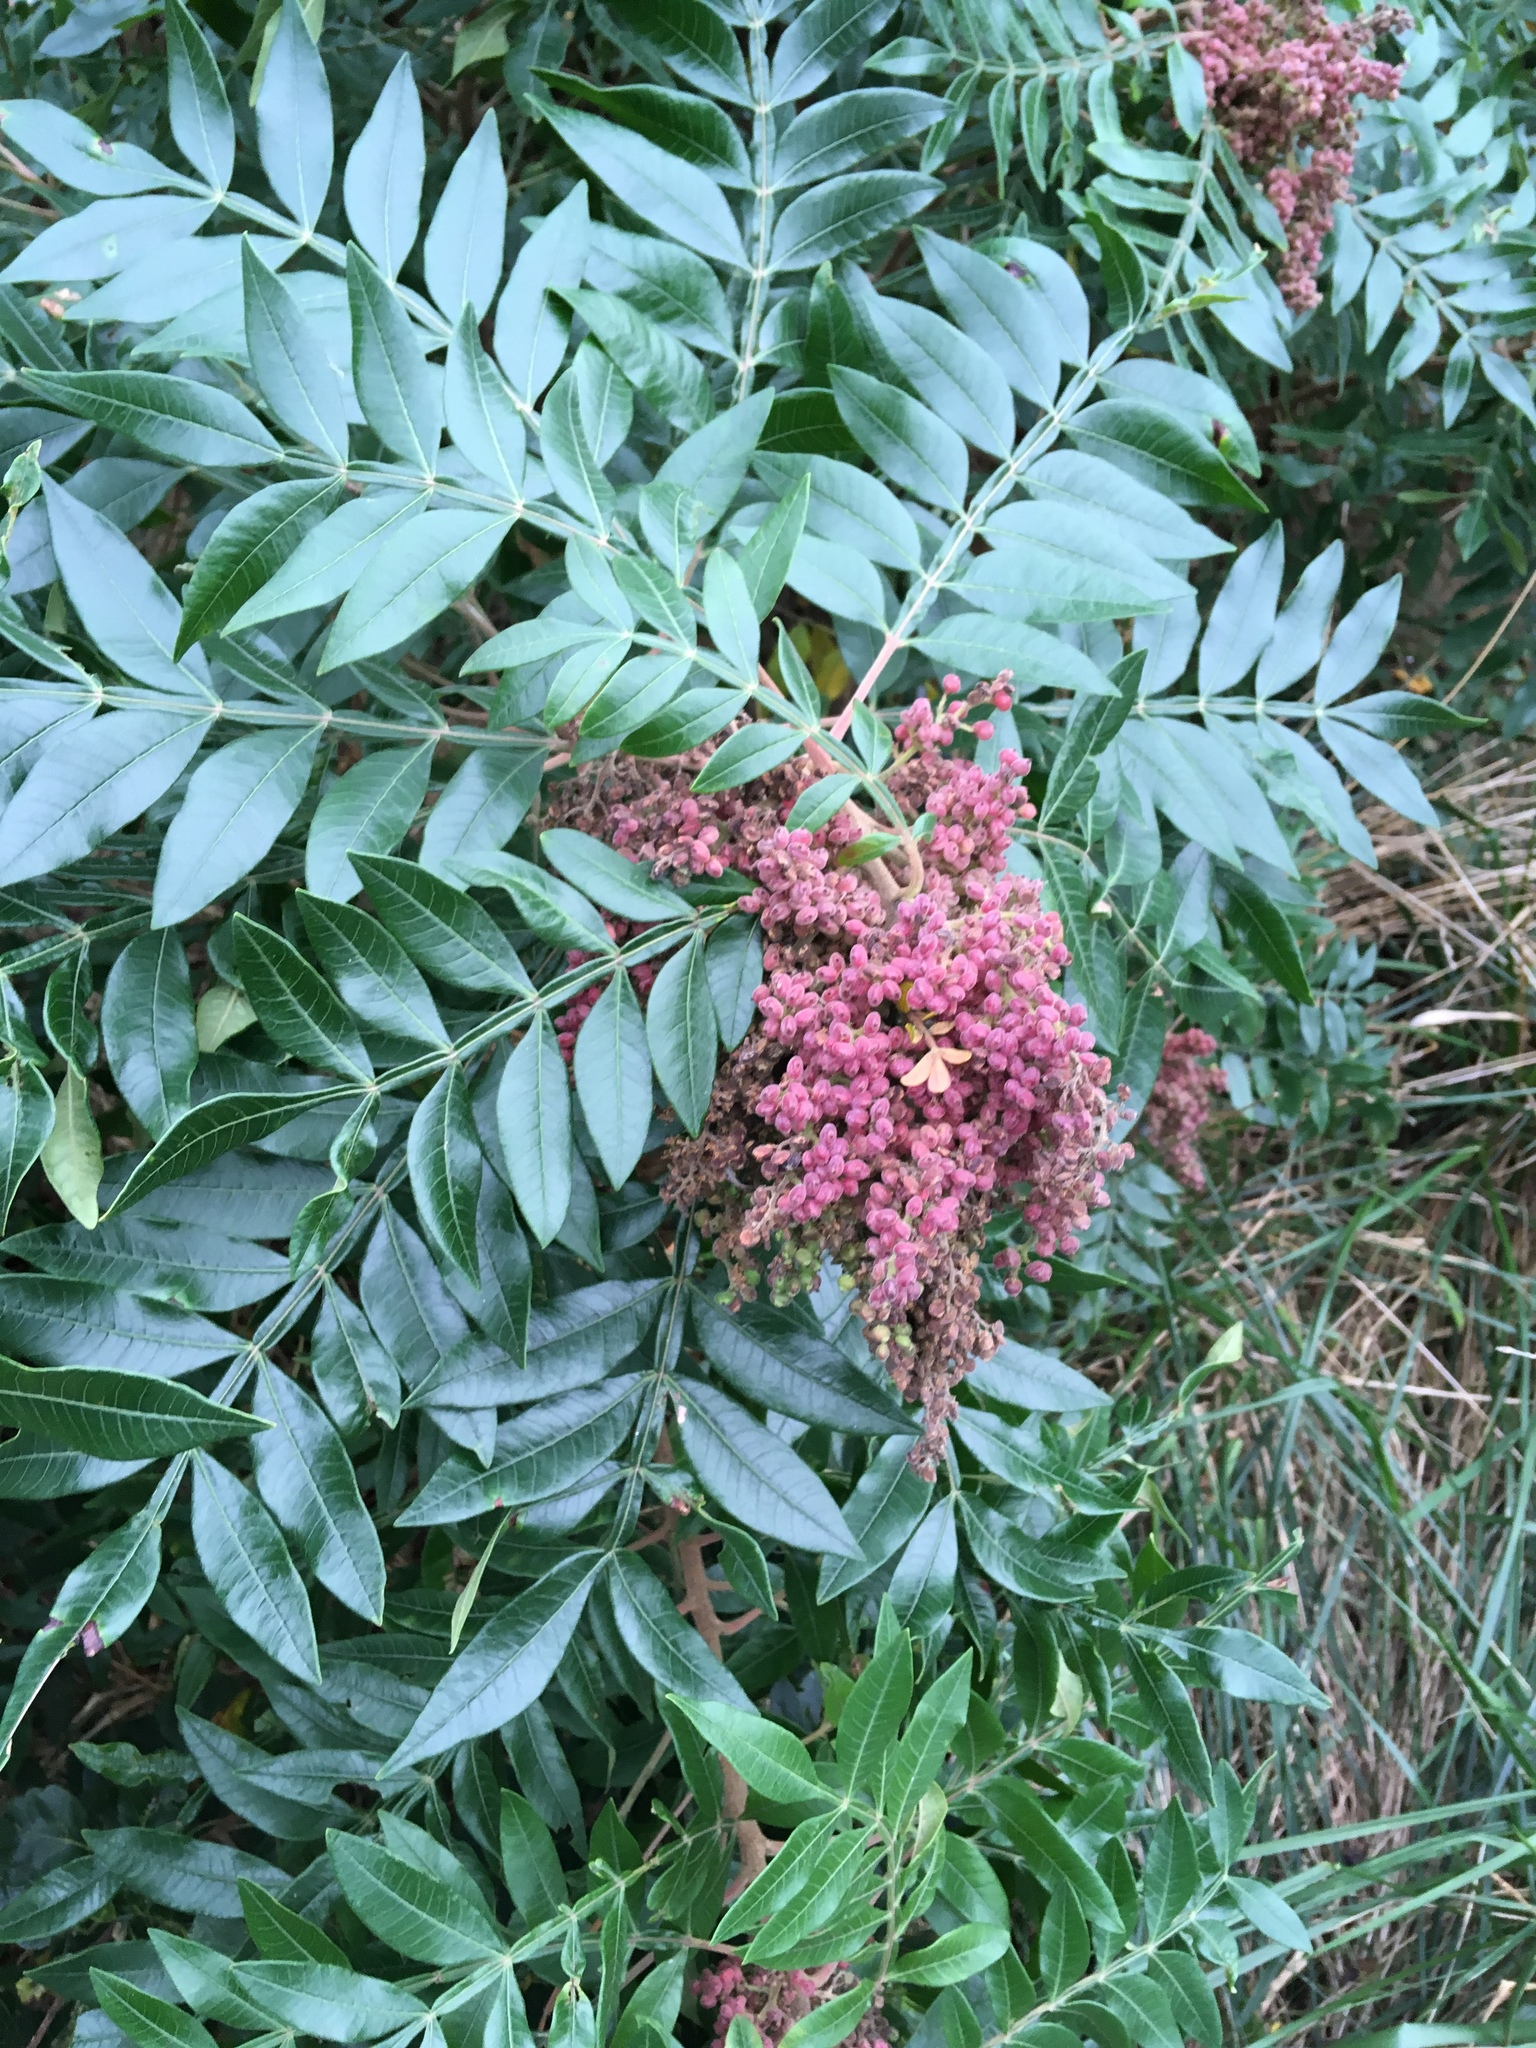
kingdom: Plantae
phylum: Tracheophyta
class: Magnoliopsida
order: Sapindales
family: Anacardiaceae
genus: Rhus
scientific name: Rhus copallina
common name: Shining sumac
